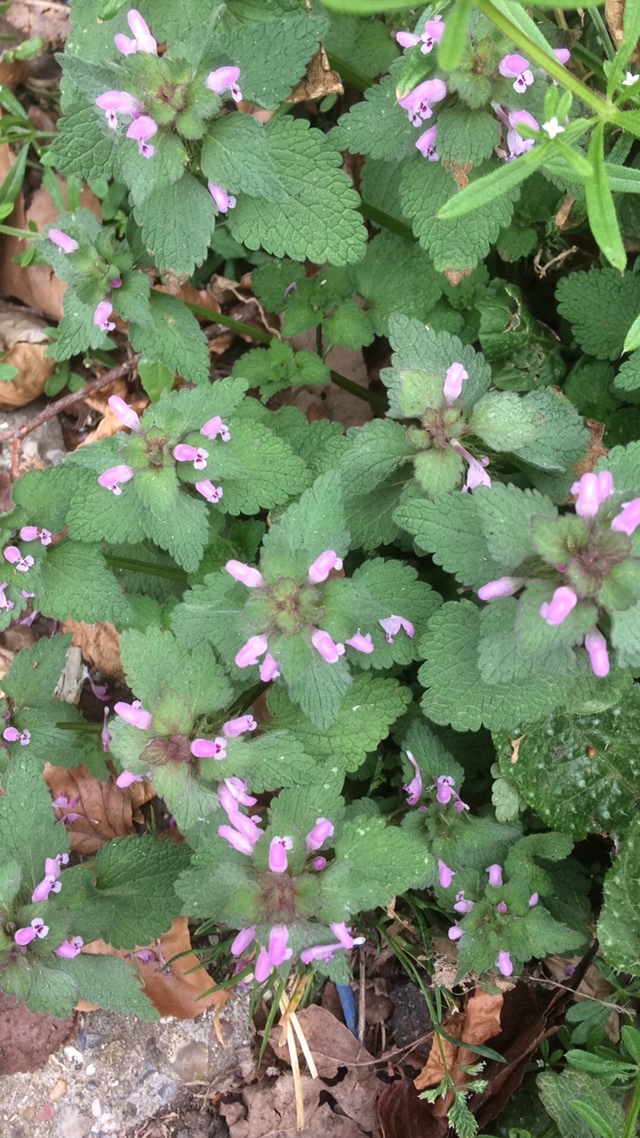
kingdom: Plantae
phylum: Tracheophyta
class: Magnoliopsida
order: Lamiales
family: Lamiaceae
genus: Lamium
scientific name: Lamium purpureum
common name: Red dead-nettle
